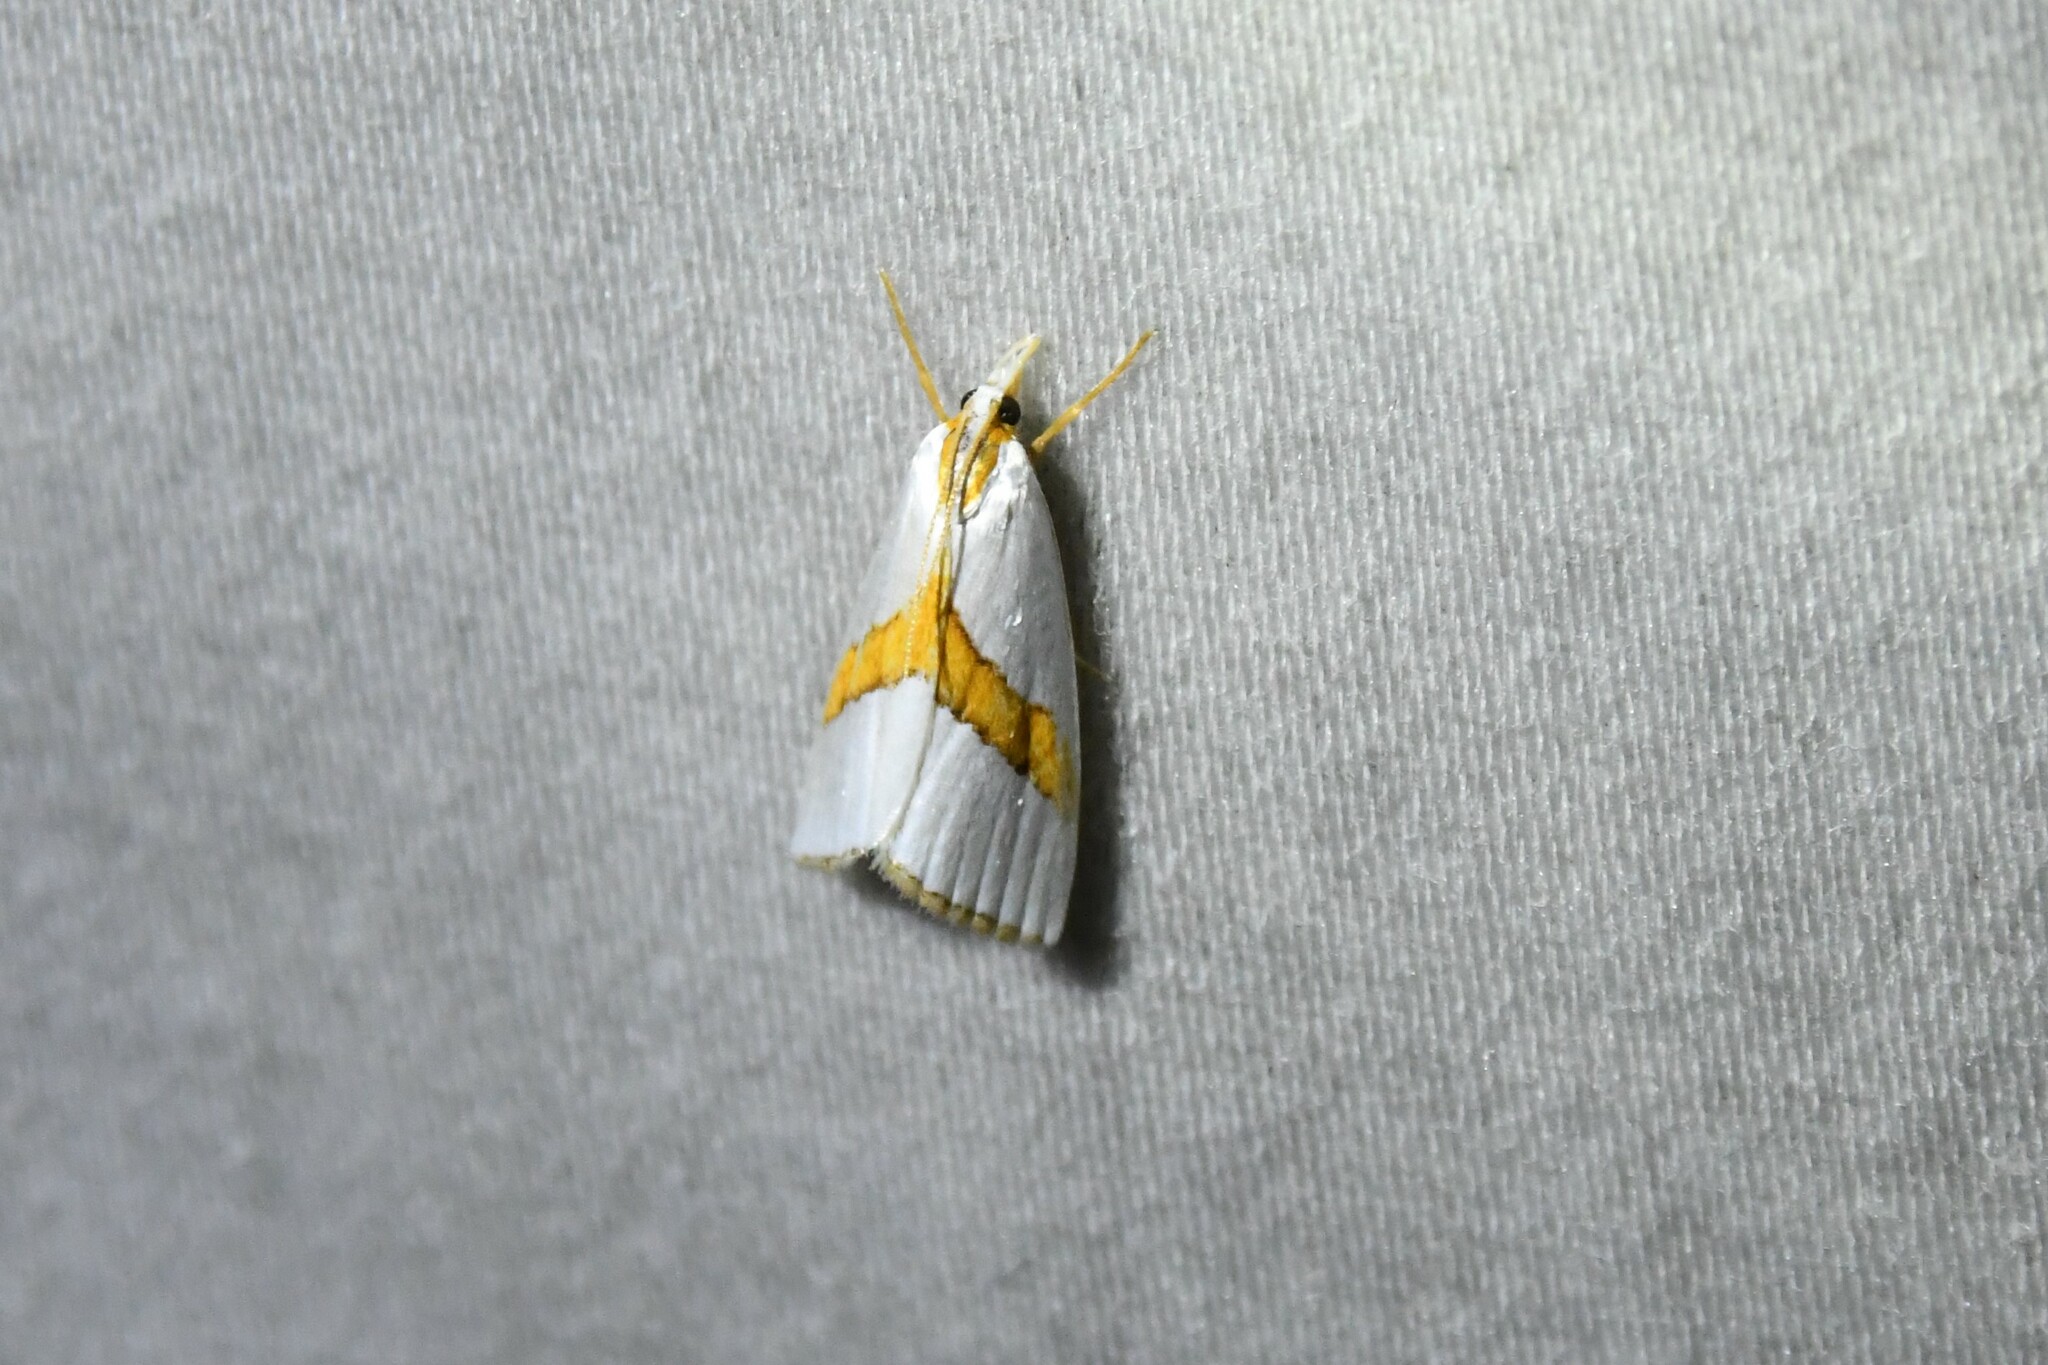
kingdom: Animalia
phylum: Arthropoda
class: Insecta
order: Lepidoptera
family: Crambidae
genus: Vaxi
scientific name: Vaxi critica
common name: Straight-lined vaxi moth
